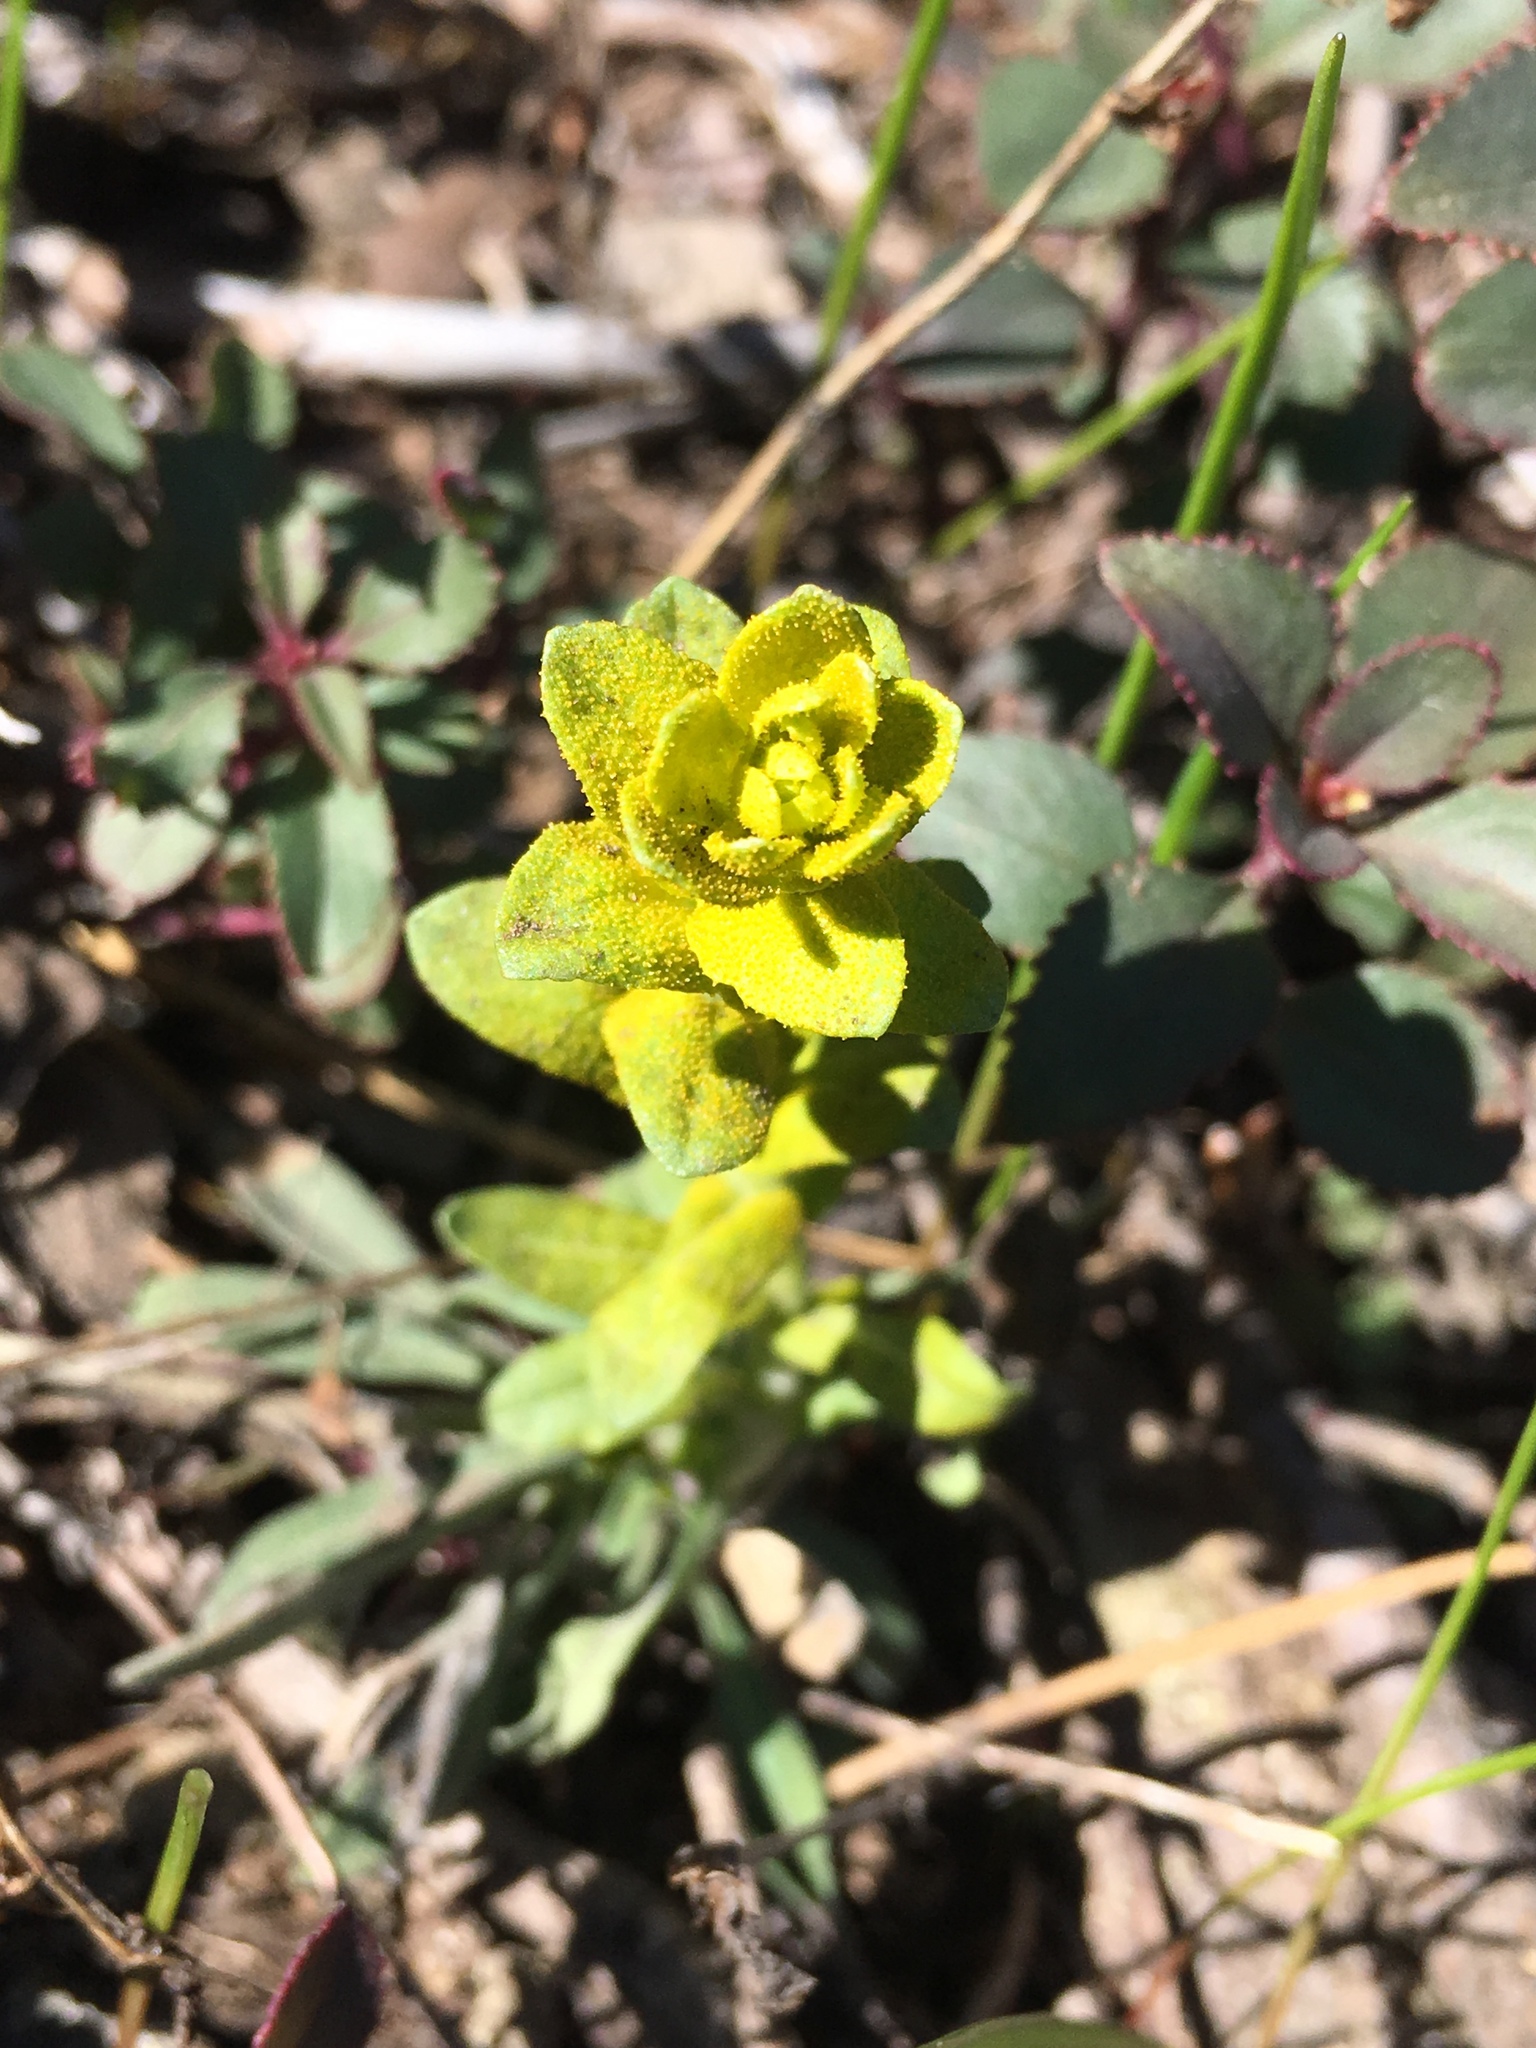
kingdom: Fungi
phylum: Basidiomycota
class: Pucciniomycetes
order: Pucciniales
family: Pucciniaceae
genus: Puccinia
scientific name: Puccinia monoica
